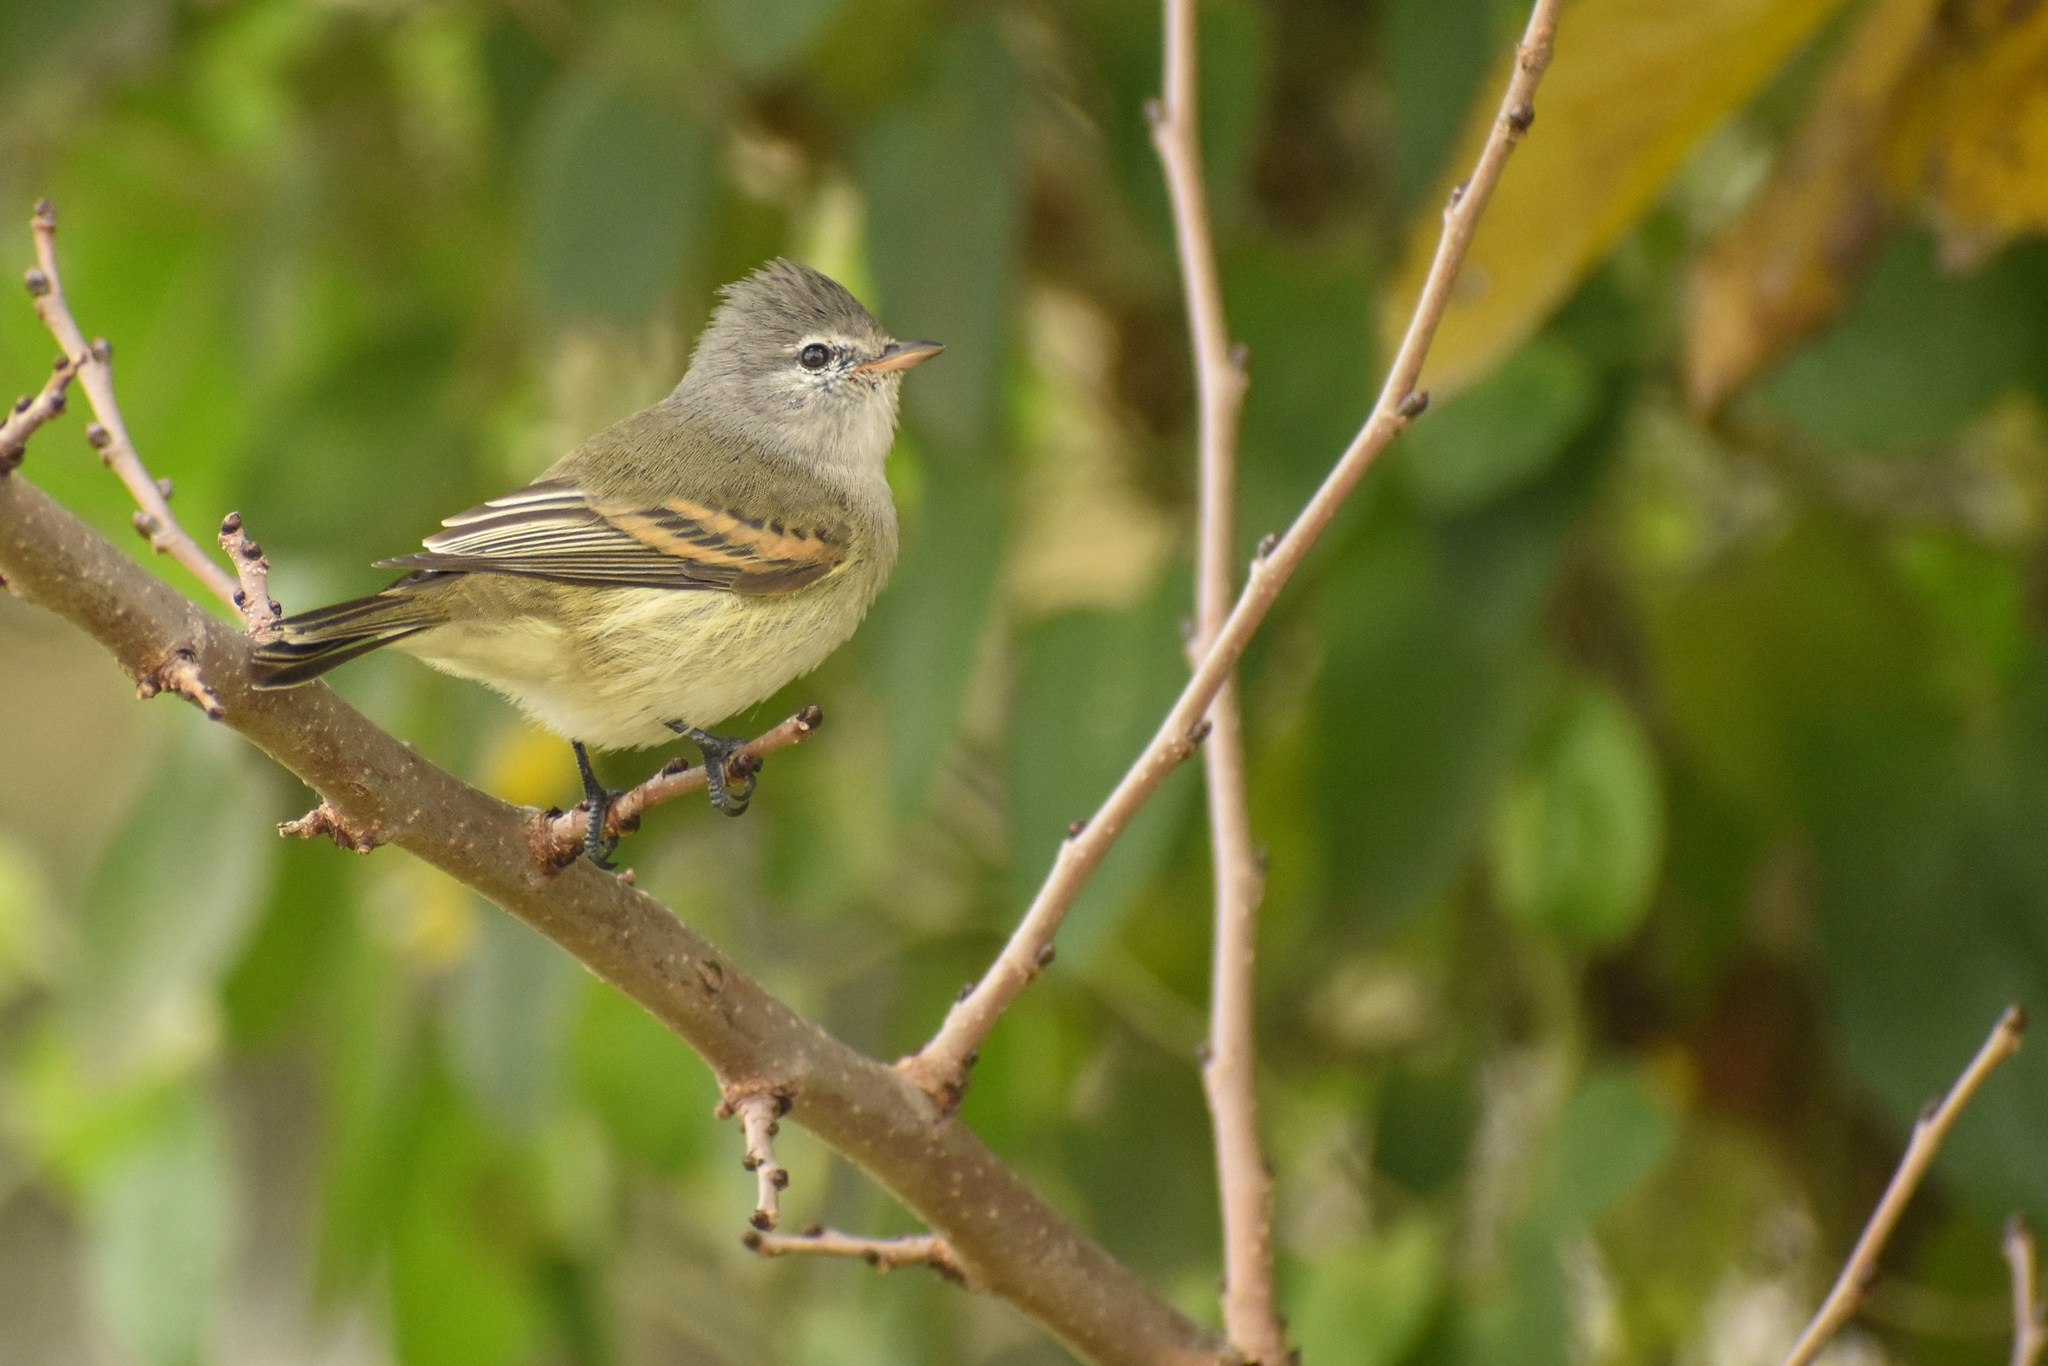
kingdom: Animalia
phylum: Chordata
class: Aves
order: Passeriformes
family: Tyrannidae
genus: Camptostoma
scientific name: Camptostoma obsoletum
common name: Southern beardless-tyrannulet
